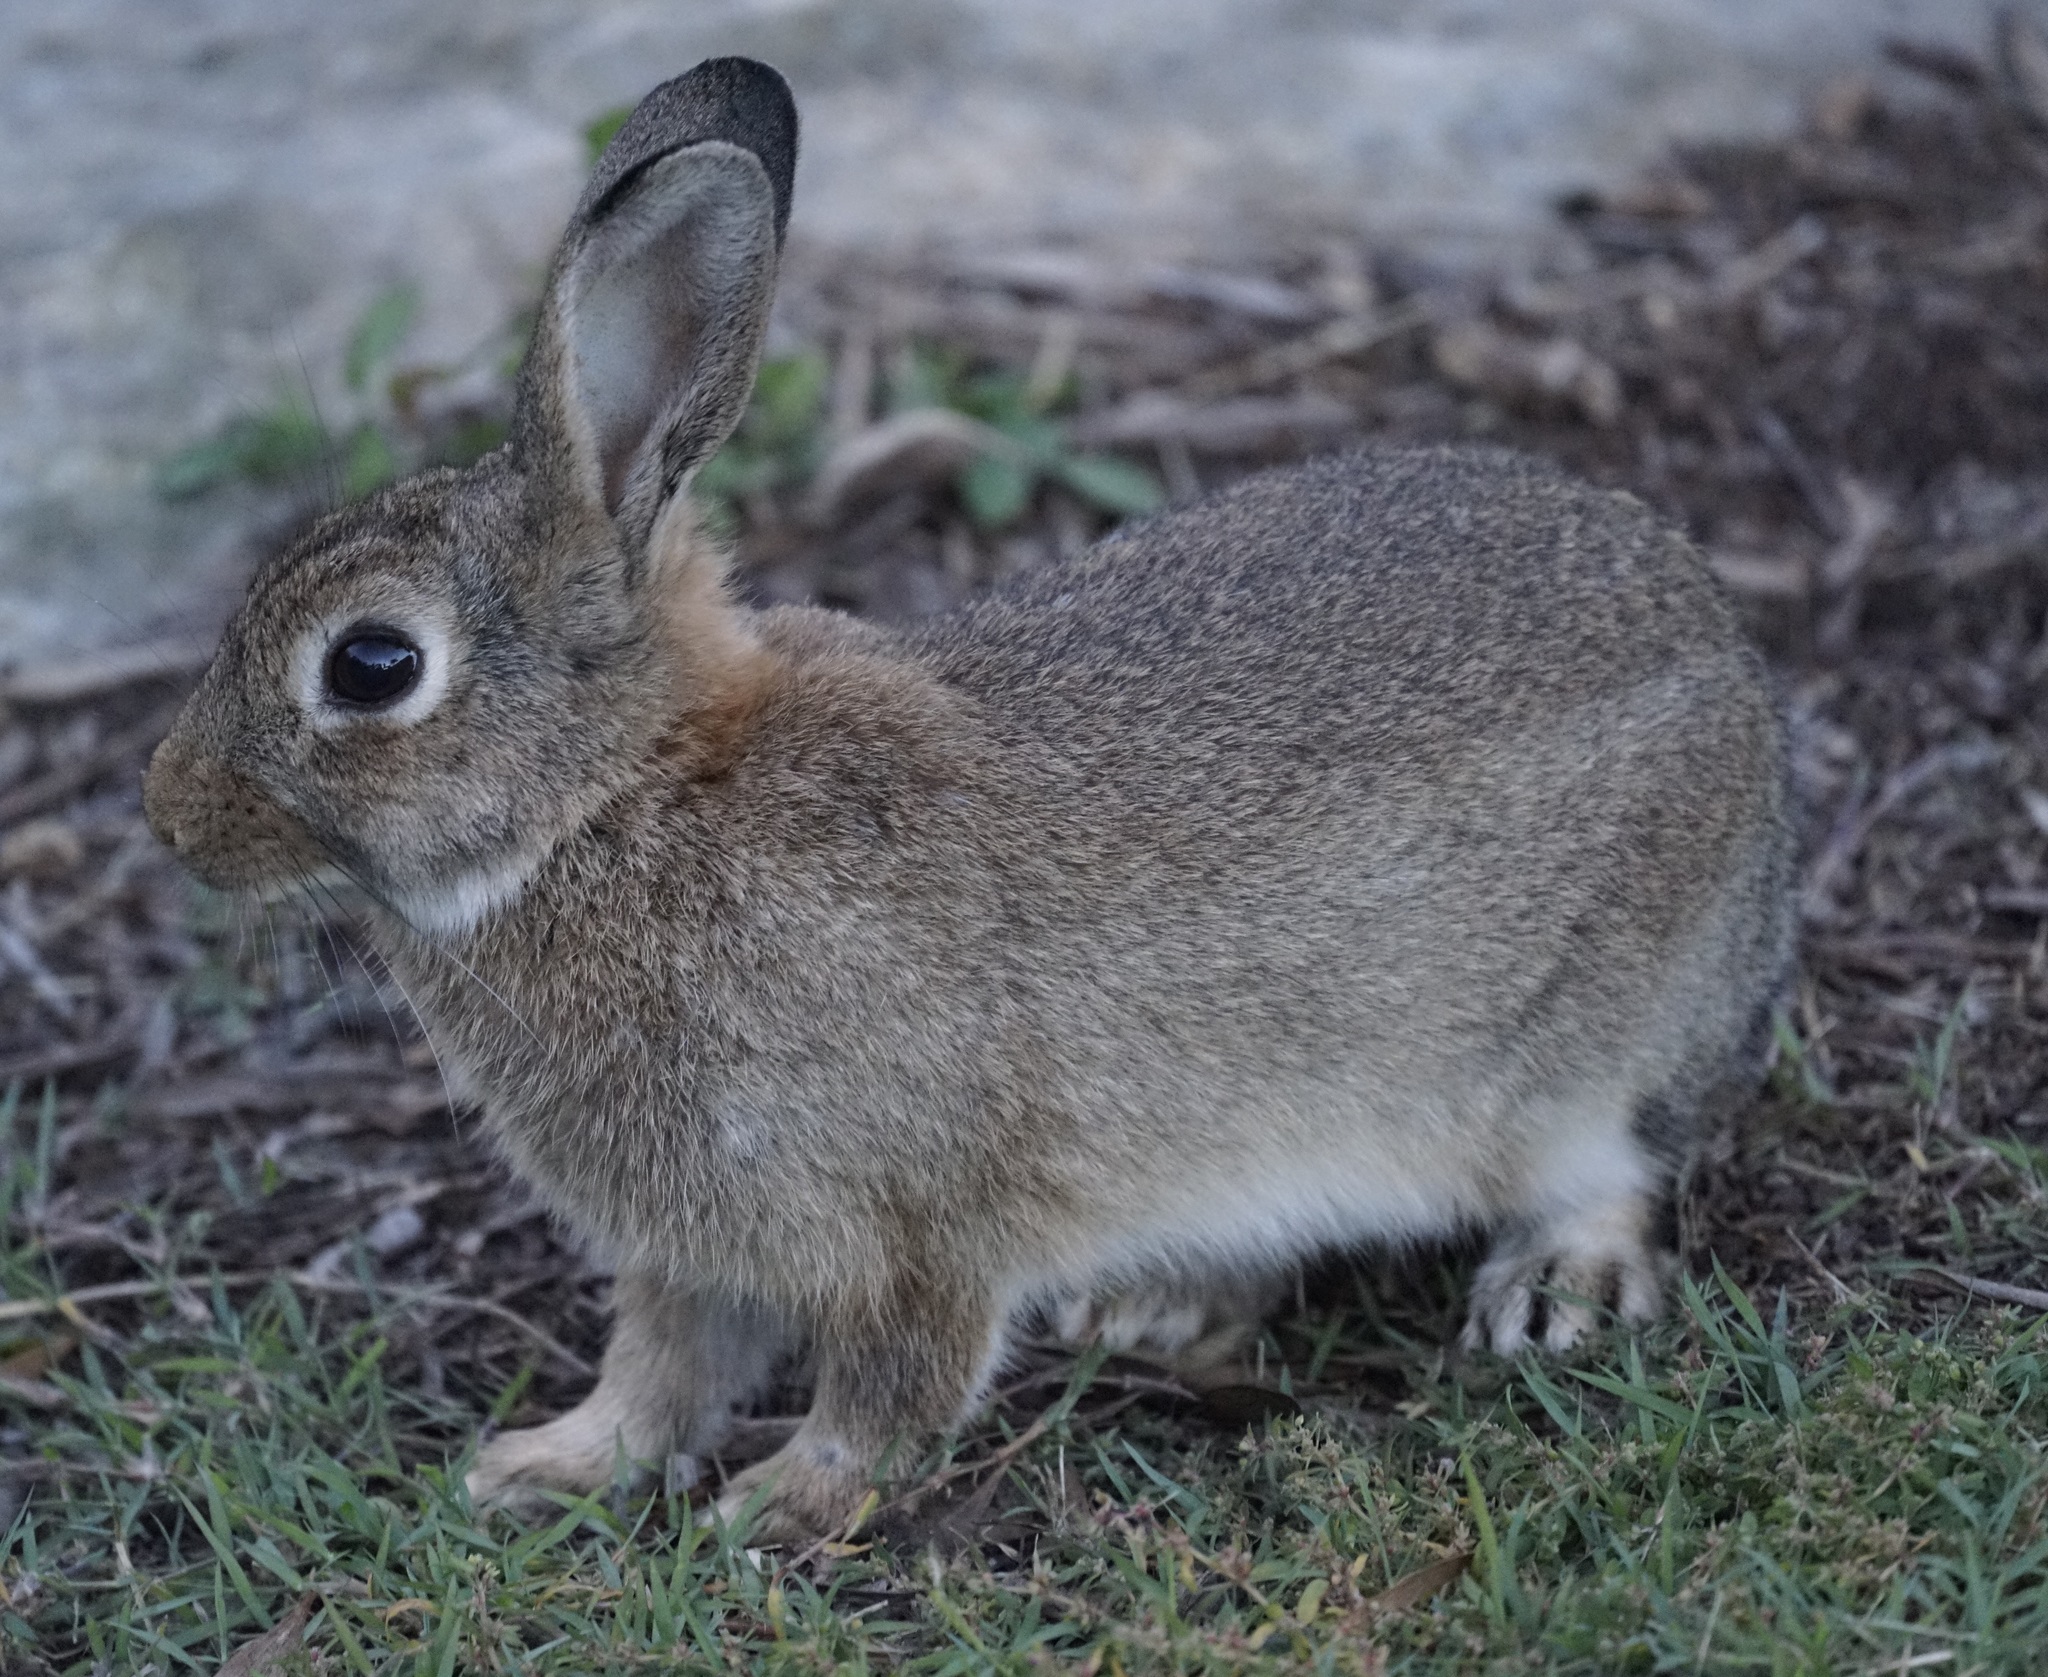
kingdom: Animalia
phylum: Chordata
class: Mammalia
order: Lagomorpha
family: Leporidae
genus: Oryctolagus
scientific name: Oryctolagus cuniculus
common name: European rabbit
